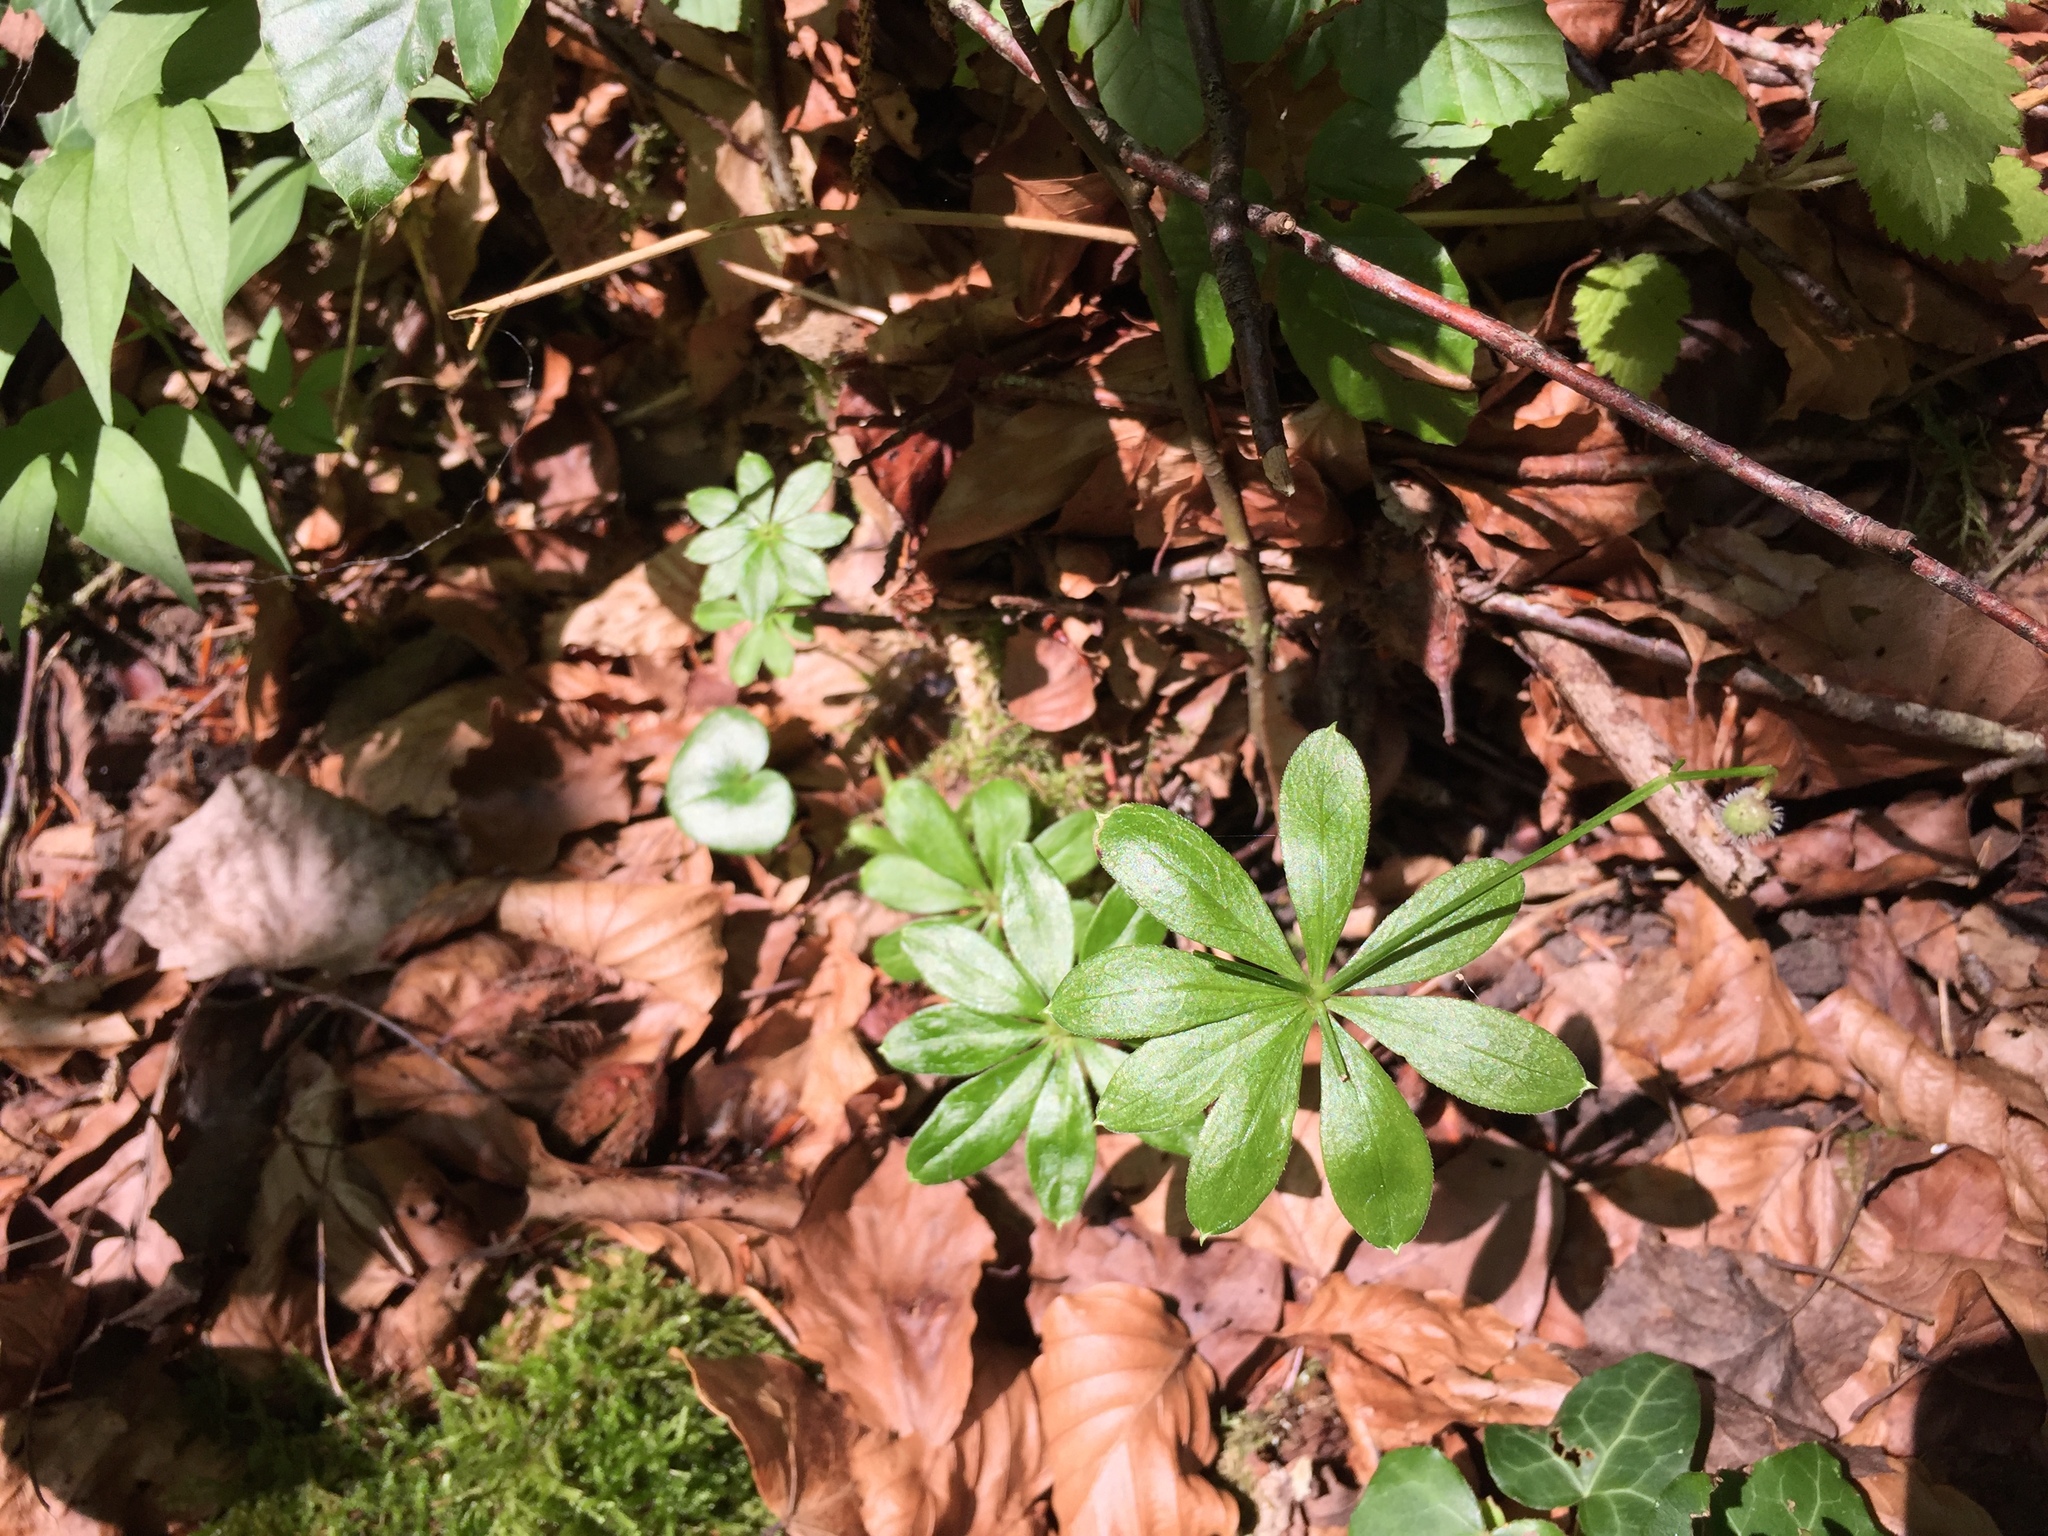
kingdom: Plantae
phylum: Tracheophyta
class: Magnoliopsida
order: Gentianales
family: Rubiaceae
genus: Galium
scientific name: Galium odoratum
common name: Sweet woodruff
